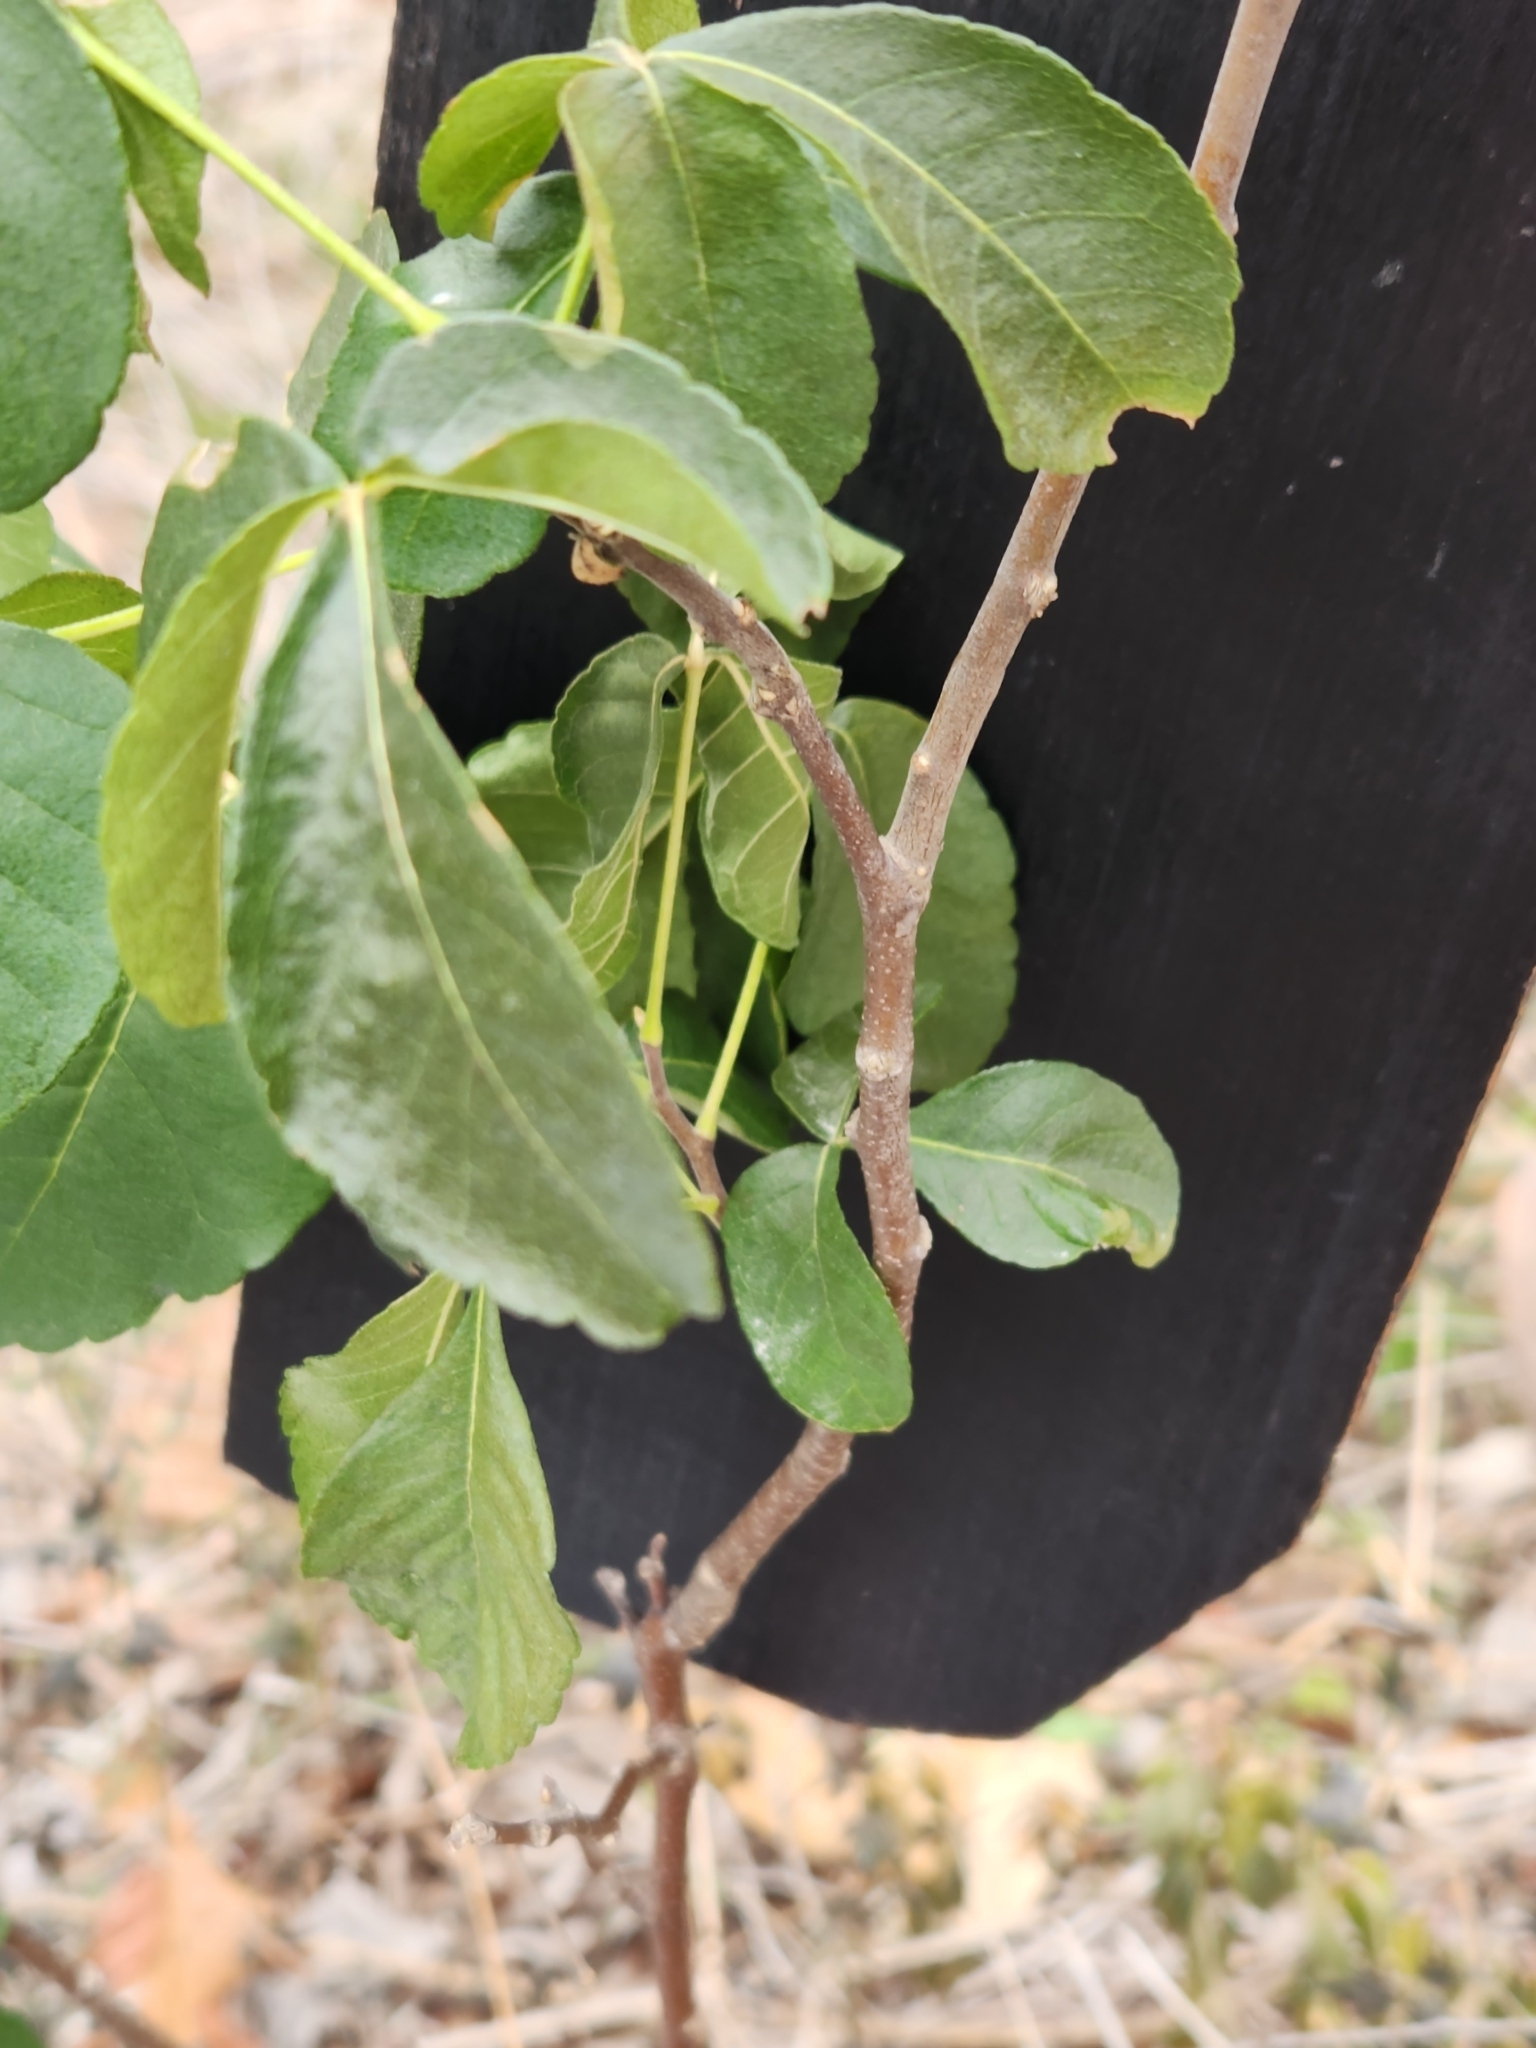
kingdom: Plantae
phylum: Tracheophyta
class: Magnoliopsida
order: Sapindales
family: Rutaceae
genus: Ptelea
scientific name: Ptelea trifoliata
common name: Common hop-tree
